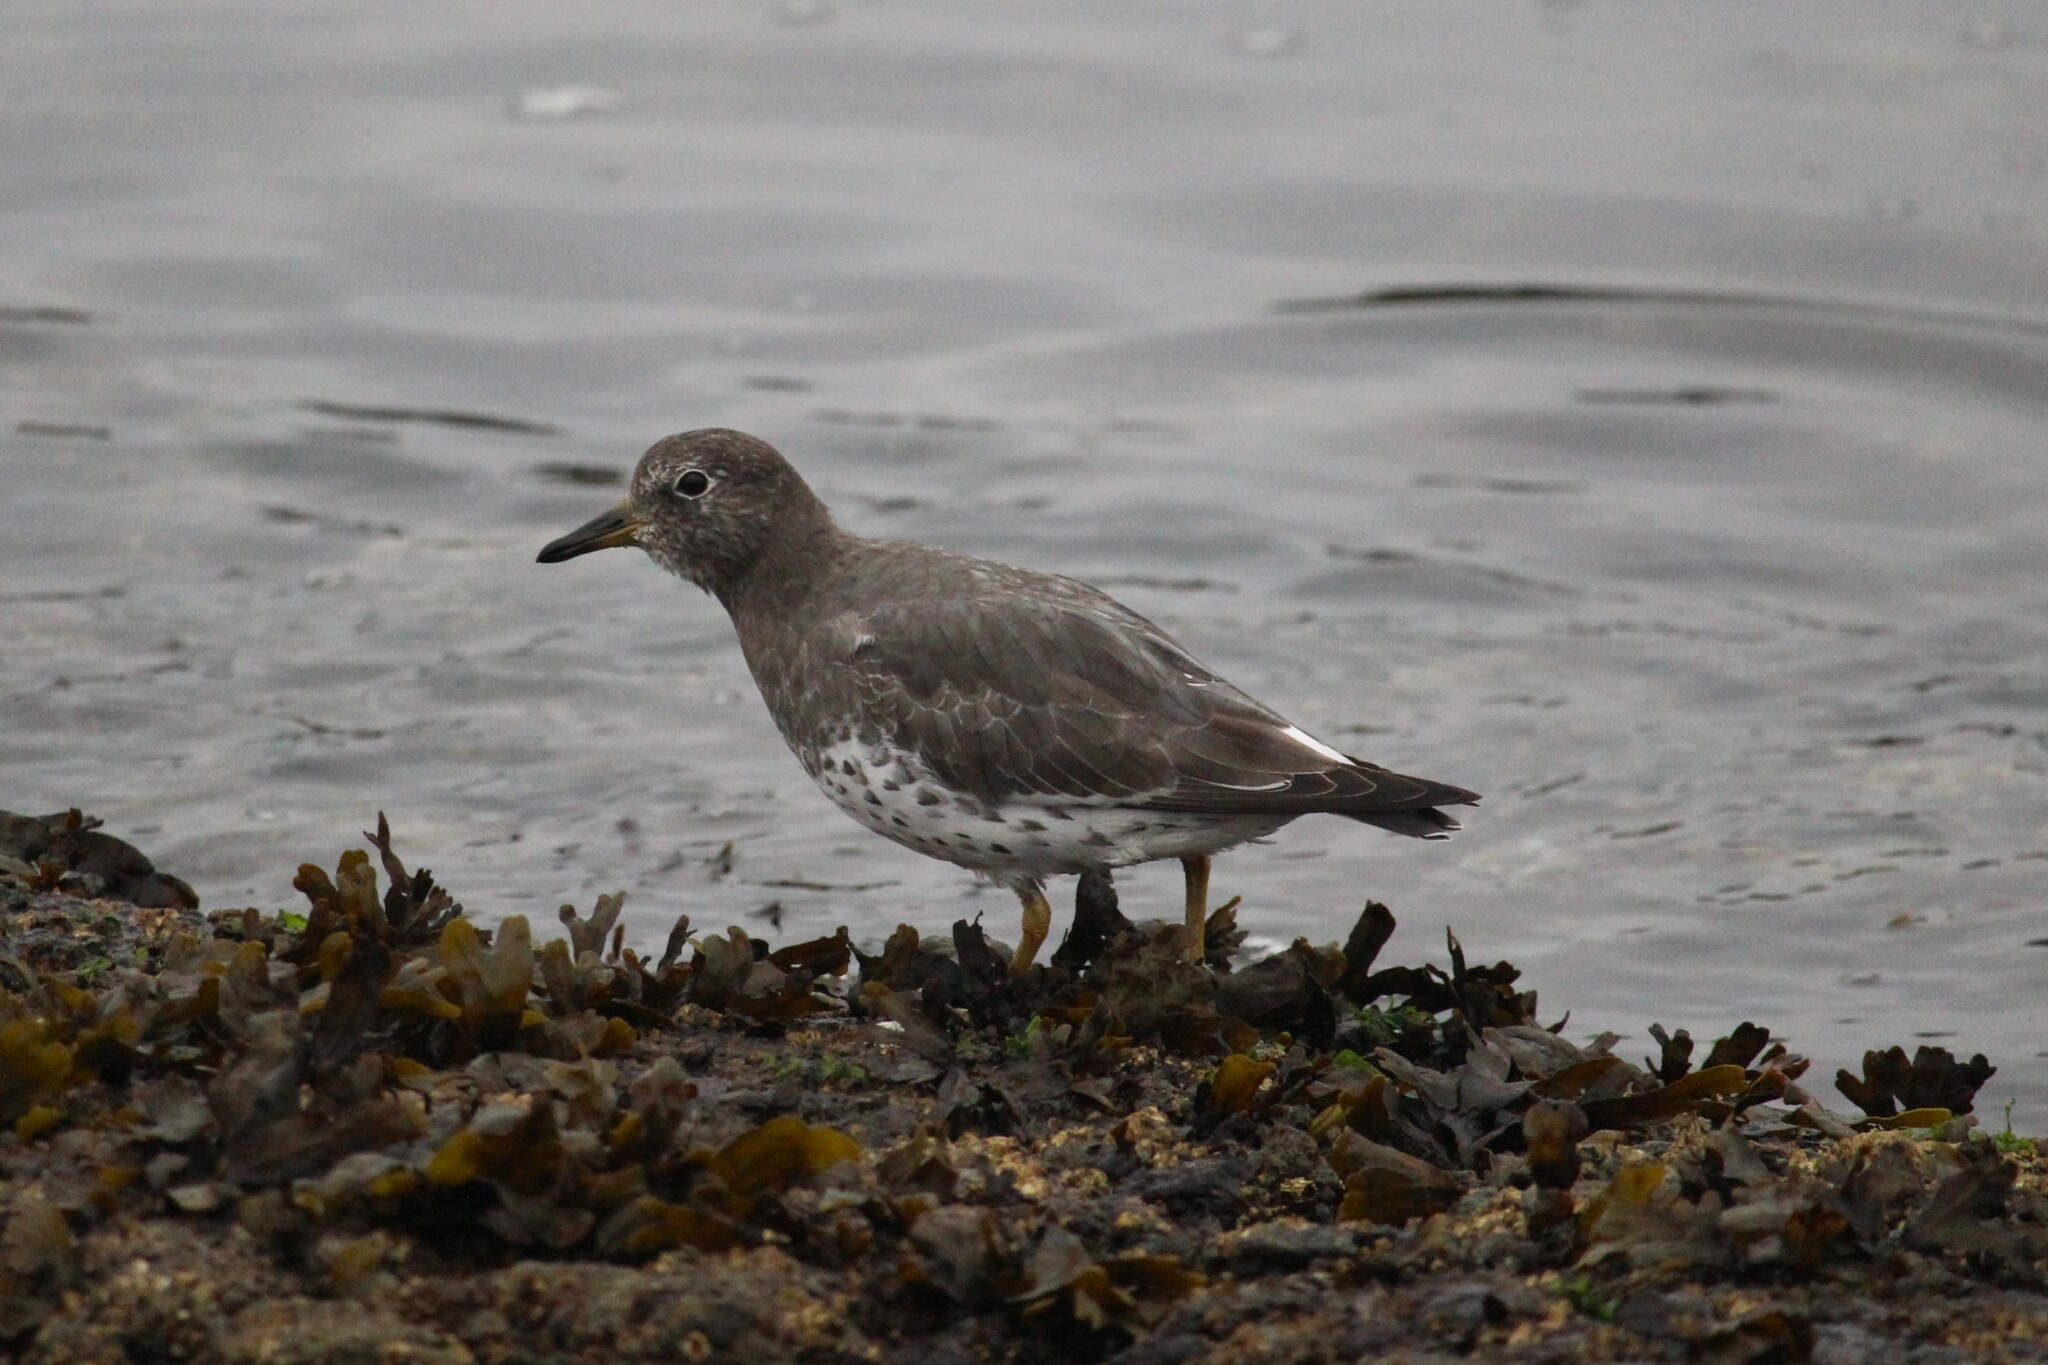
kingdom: Animalia
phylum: Chordata
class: Aves
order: Charadriiformes
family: Scolopacidae
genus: Calidris
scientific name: Calidris virgata
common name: Surfbird
